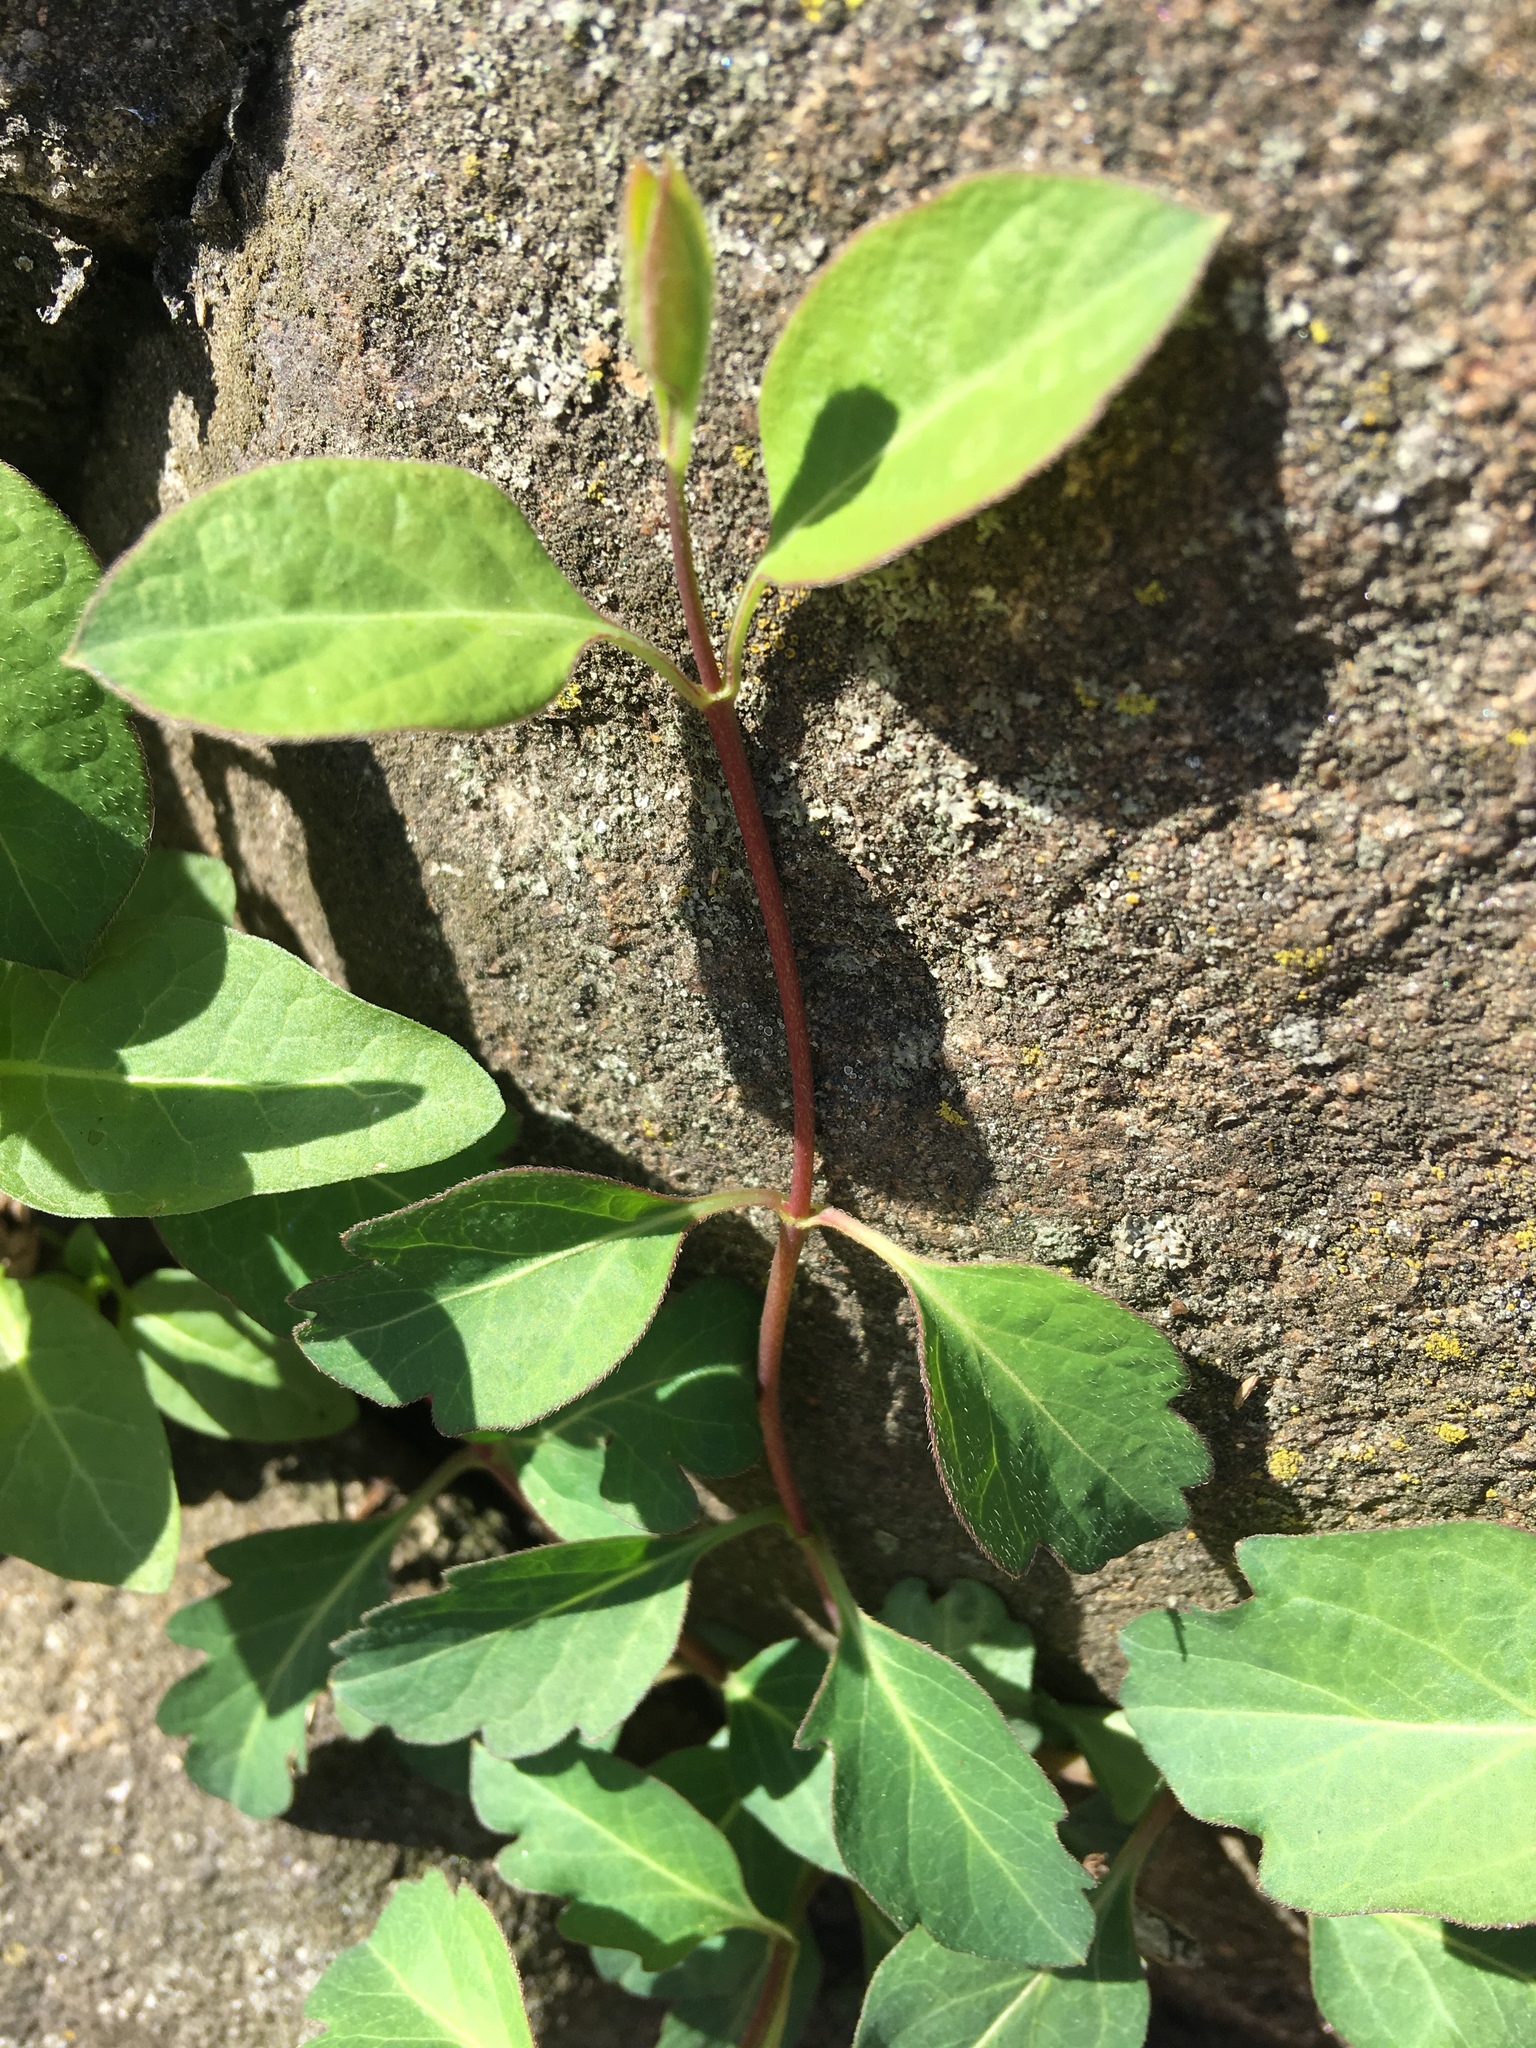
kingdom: Plantae
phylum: Tracheophyta
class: Magnoliopsida
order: Dipsacales
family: Caprifoliaceae
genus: Lonicera
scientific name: Lonicera japonica
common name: Japanese honeysuckle
